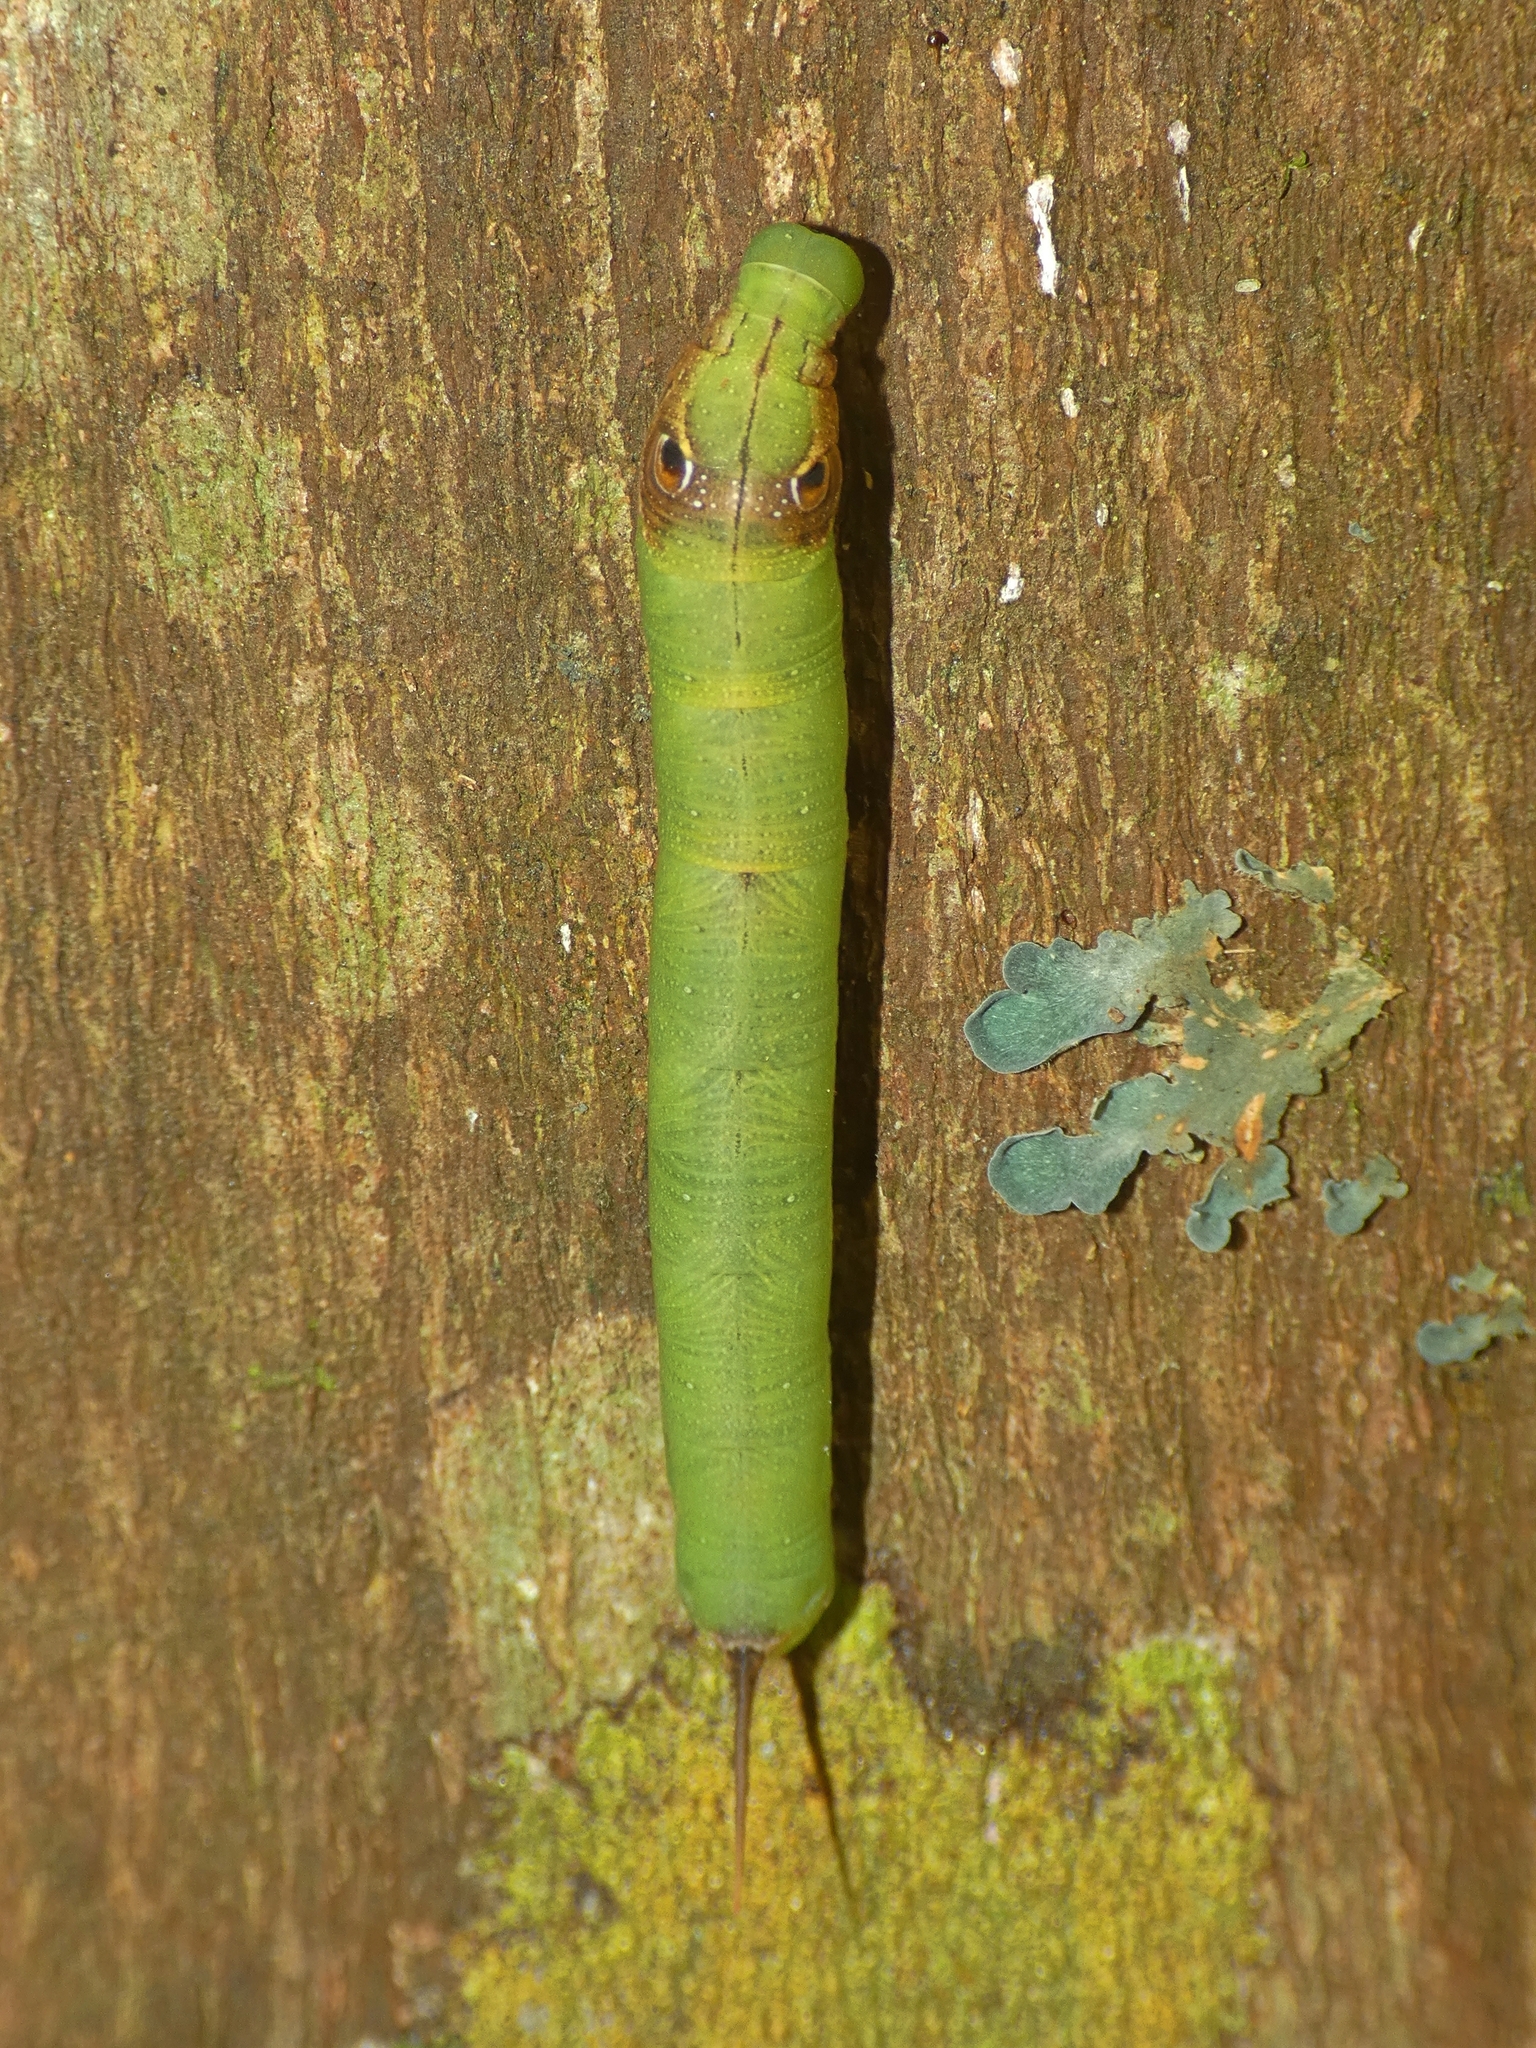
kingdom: Animalia
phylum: Arthropoda
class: Insecta
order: Lepidoptera
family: Sphingidae
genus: Eupanacra
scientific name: Eupanacra splendens
